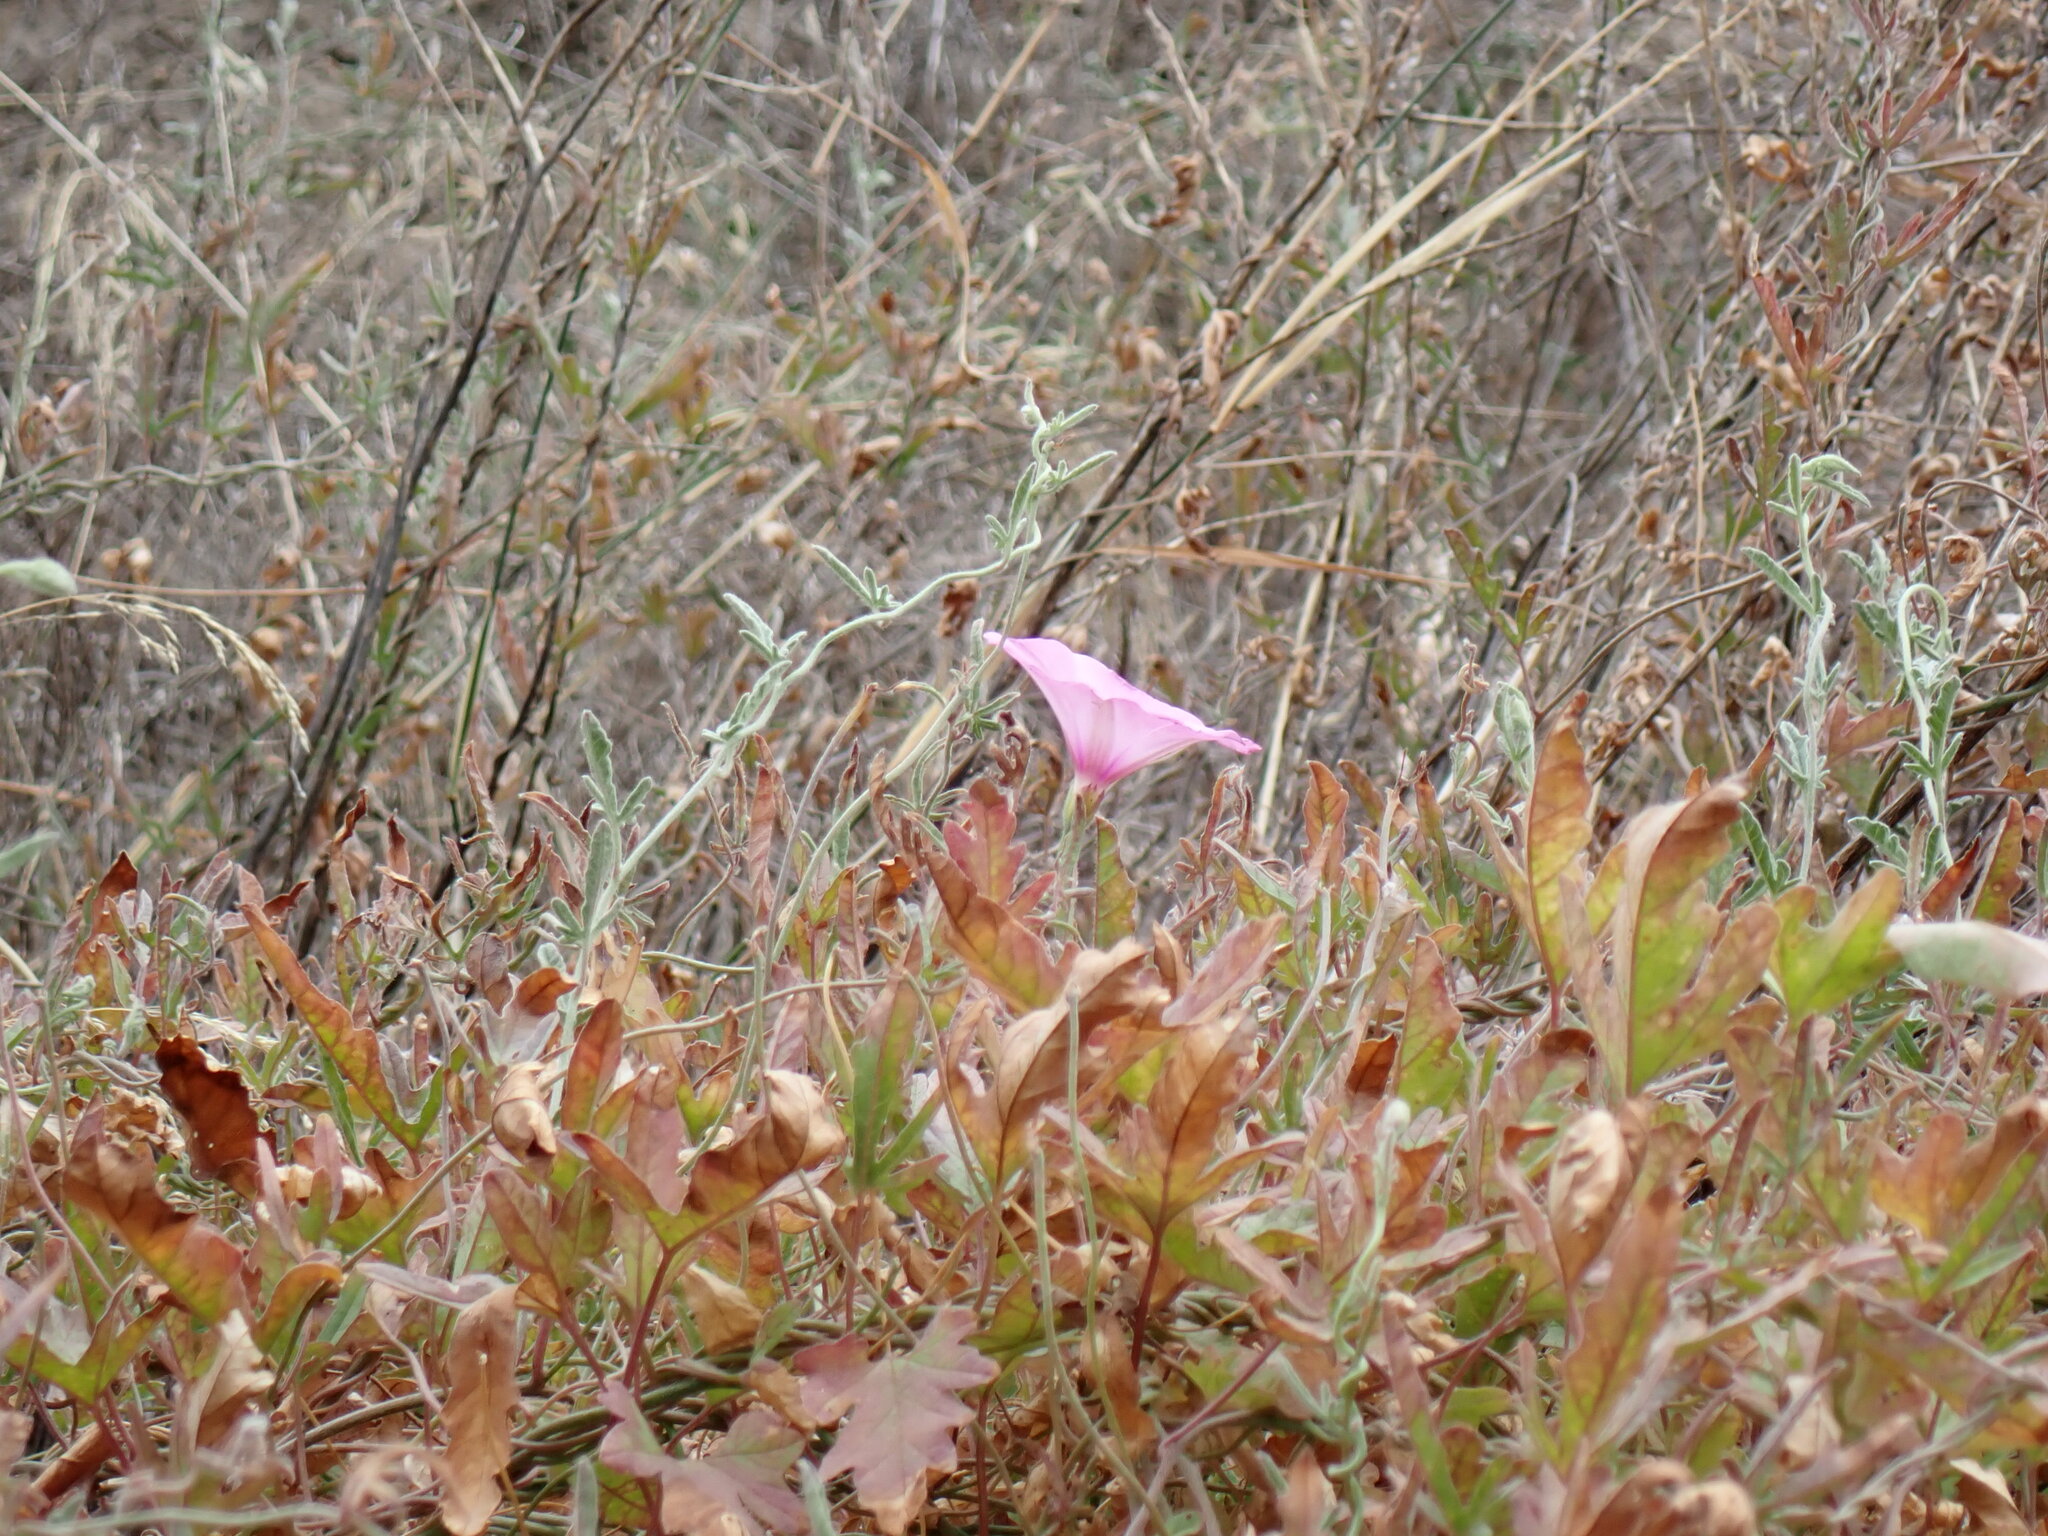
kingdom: Plantae
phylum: Tracheophyta
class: Magnoliopsida
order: Solanales
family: Convolvulaceae
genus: Convolvulus
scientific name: Convolvulus althaeoides
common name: Mallow bindweed
